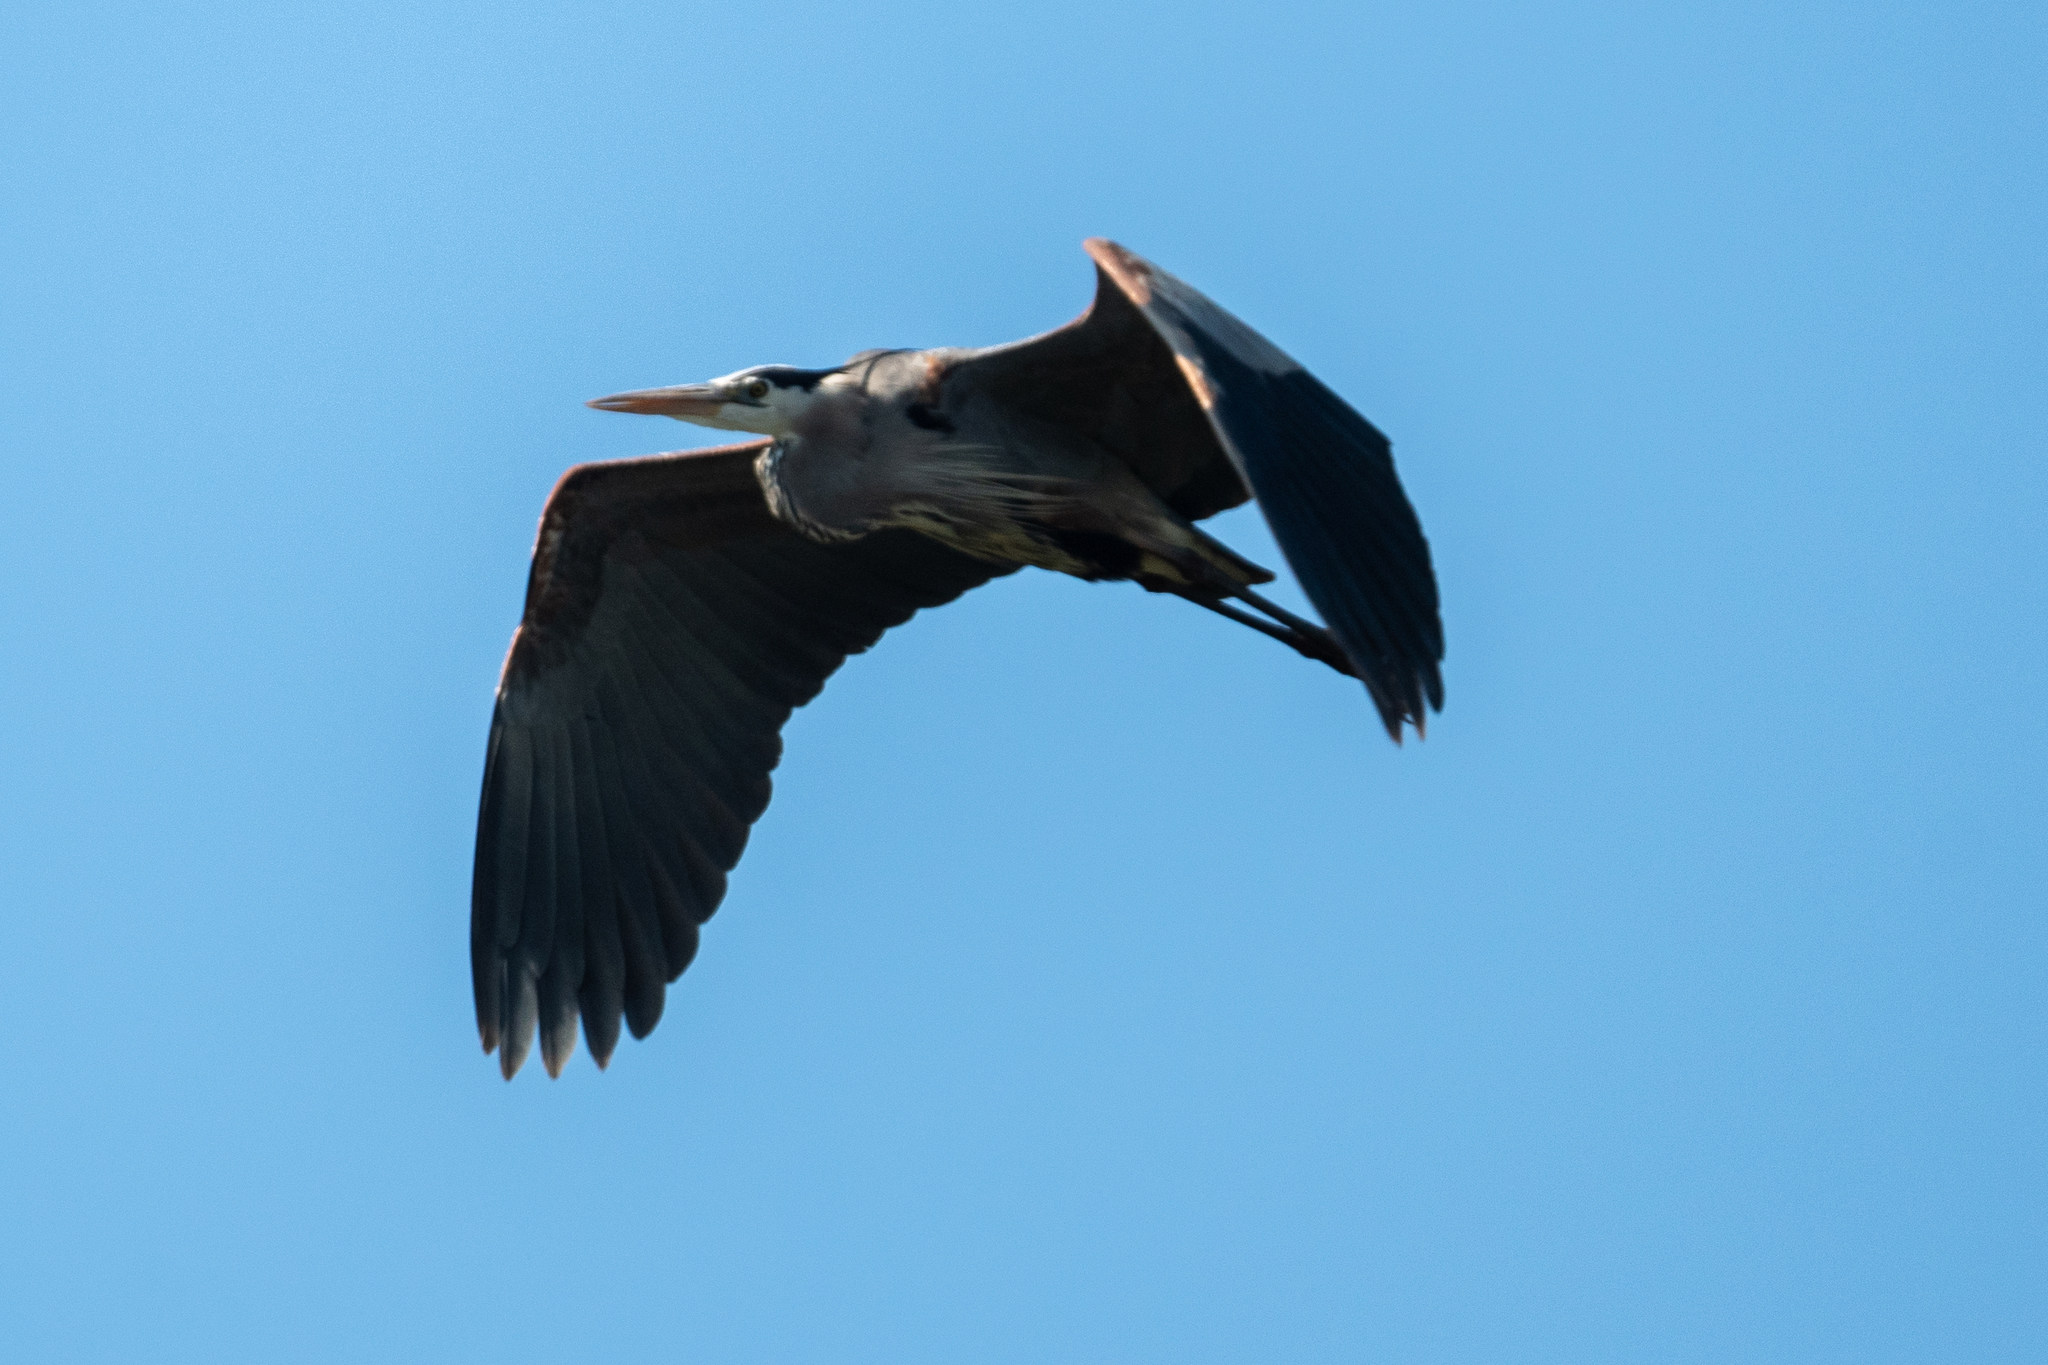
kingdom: Animalia
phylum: Chordata
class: Aves
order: Pelecaniformes
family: Ardeidae
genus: Ardea
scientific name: Ardea herodias
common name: Great blue heron
